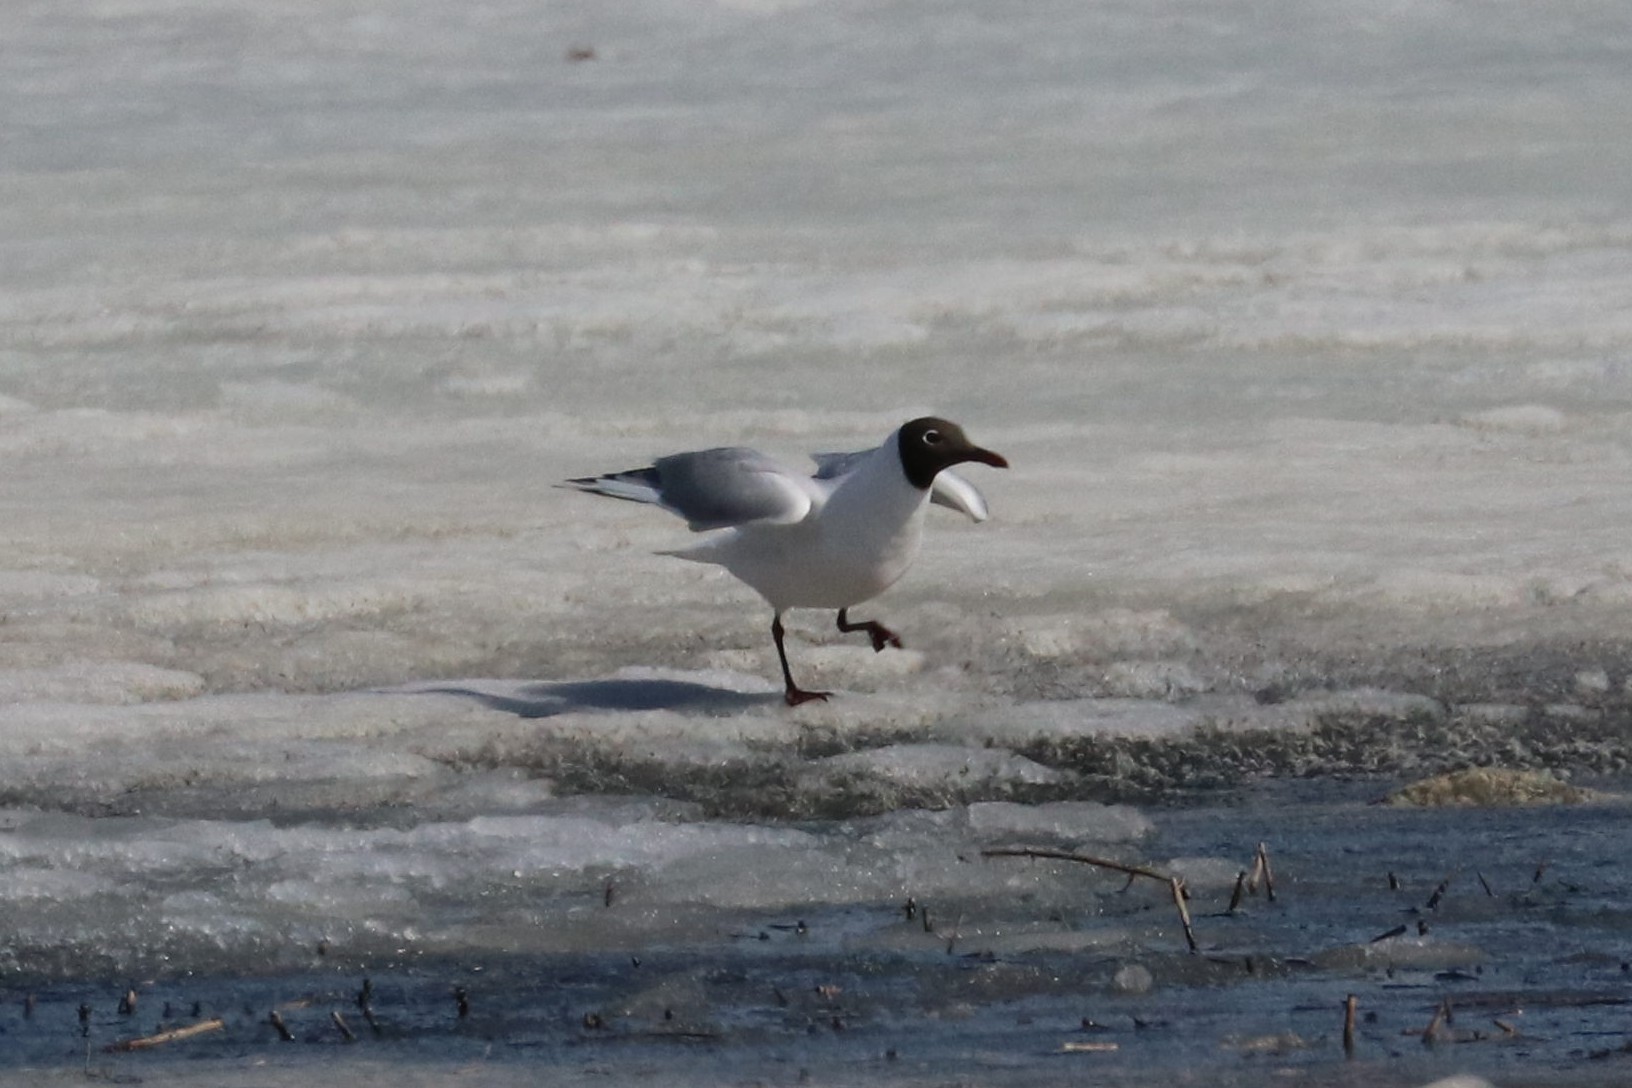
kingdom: Animalia
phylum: Chordata
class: Aves
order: Charadriiformes
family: Laridae
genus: Chroicocephalus
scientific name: Chroicocephalus ridibundus
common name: Black-headed gull
